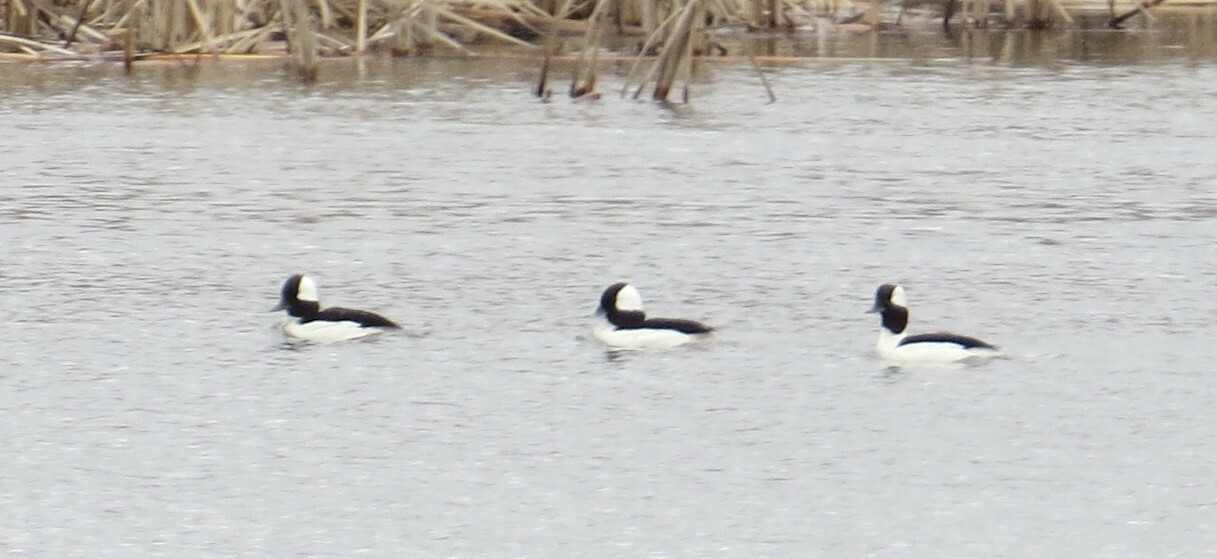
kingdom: Animalia
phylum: Chordata
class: Aves
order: Anseriformes
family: Anatidae
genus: Bucephala
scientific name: Bucephala albeola
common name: Bufflehead
